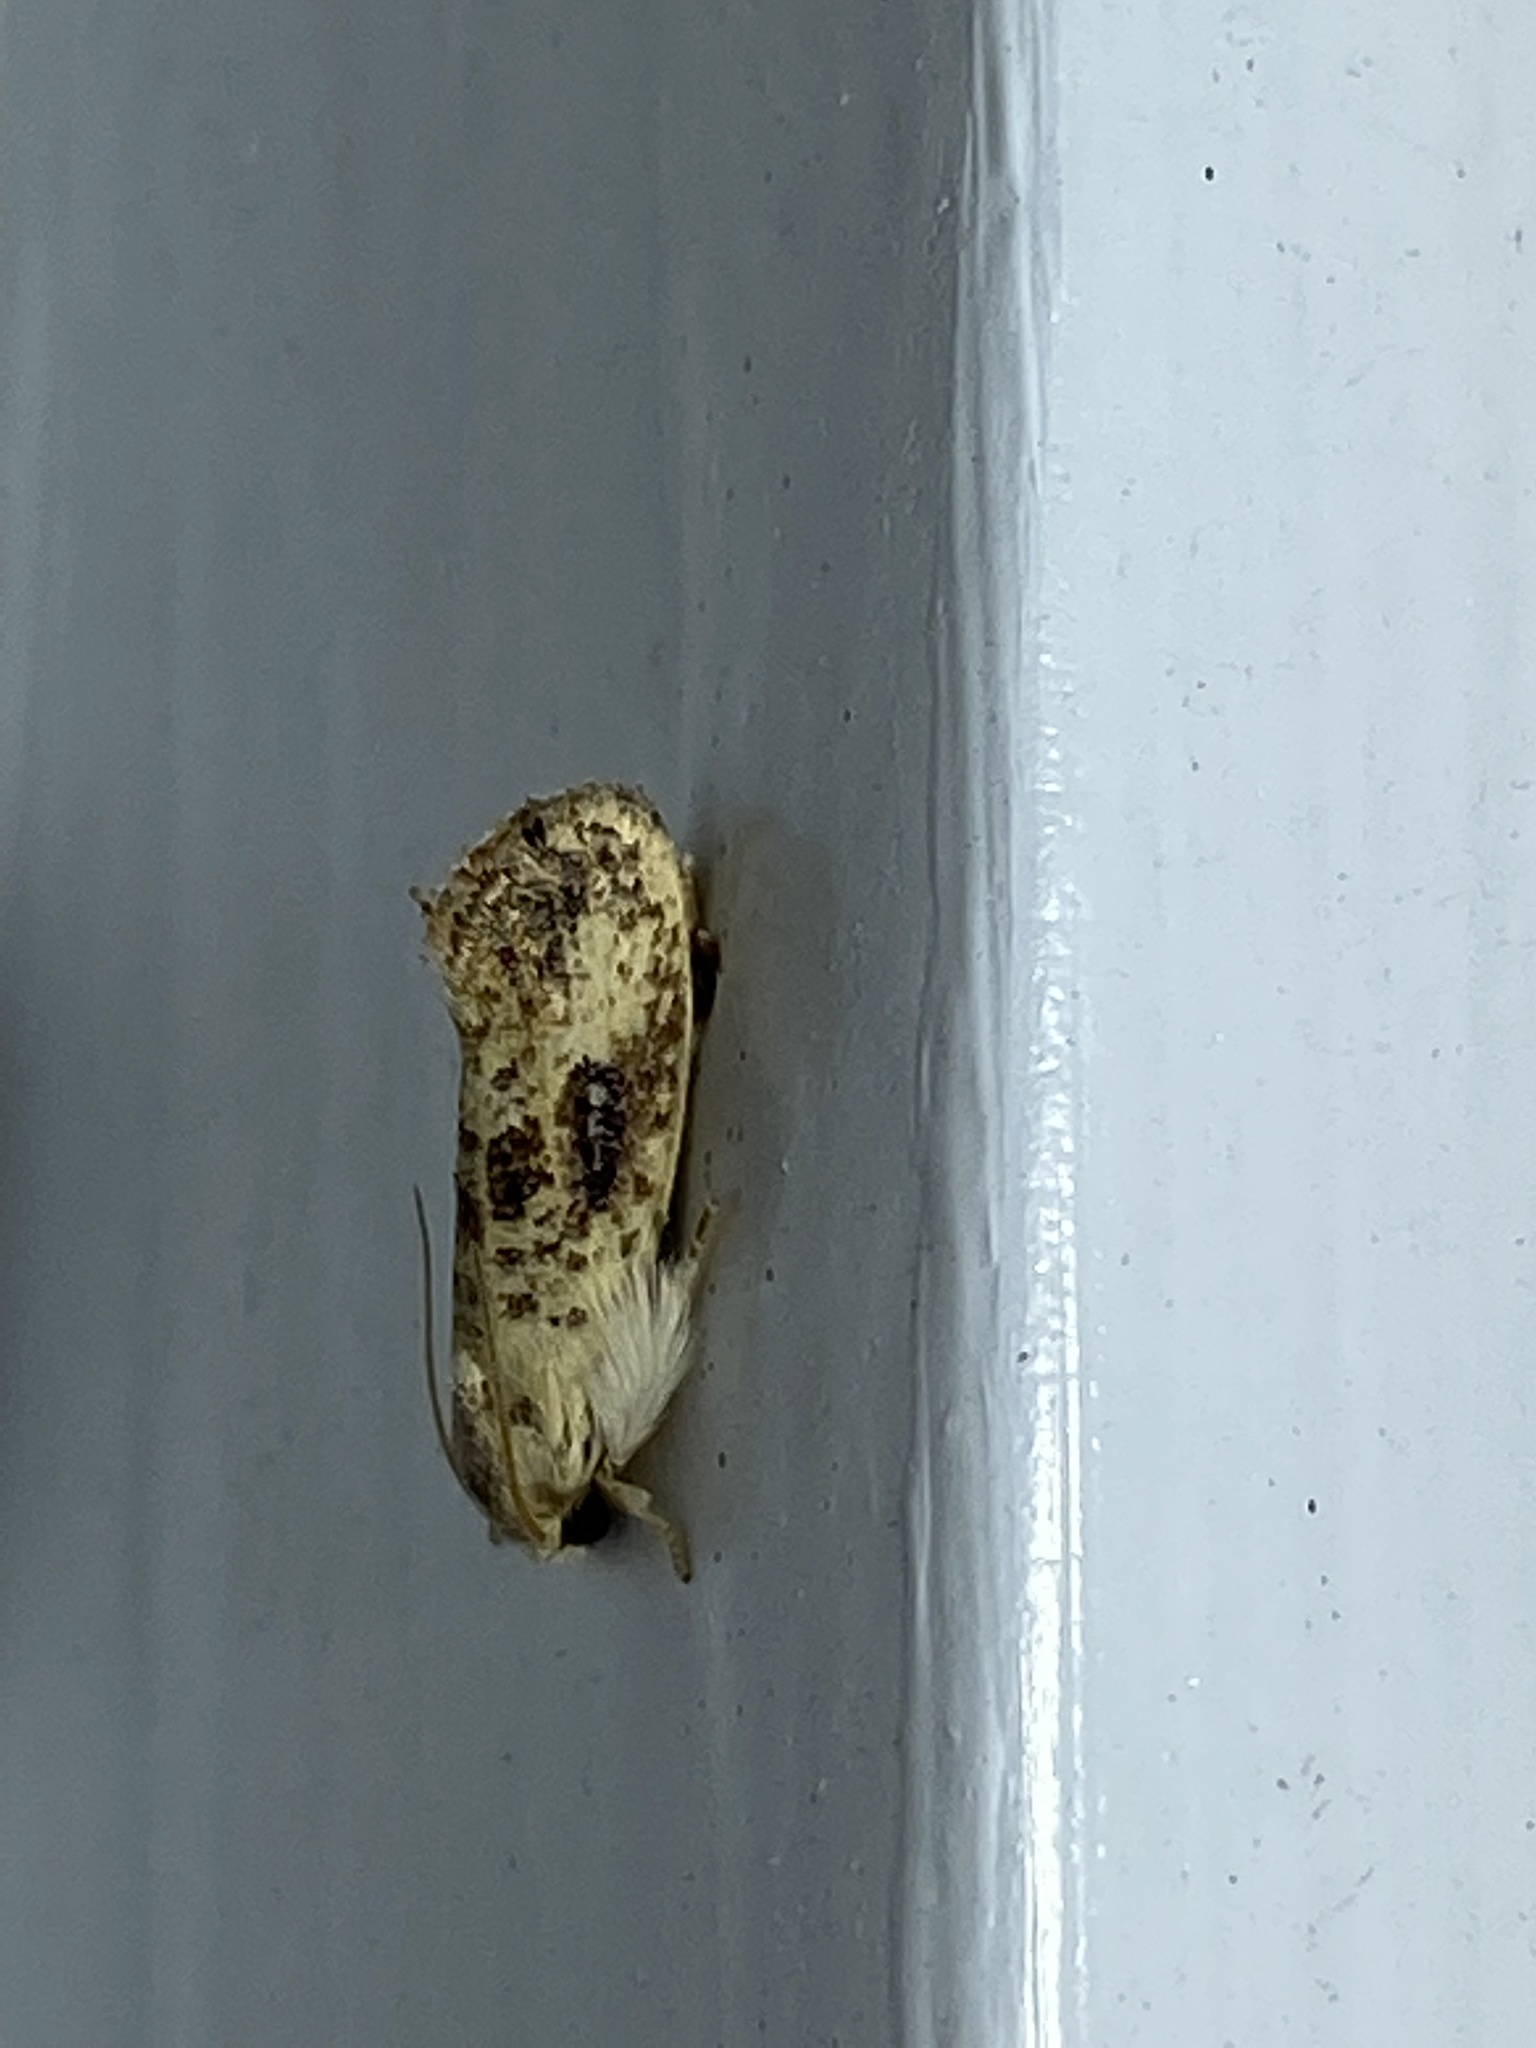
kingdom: Animalia
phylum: Arthropoda
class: Insecta
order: Lepidoptera
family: Tineidae
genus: Acrolophus
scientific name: Acrolophus mycetophagus
